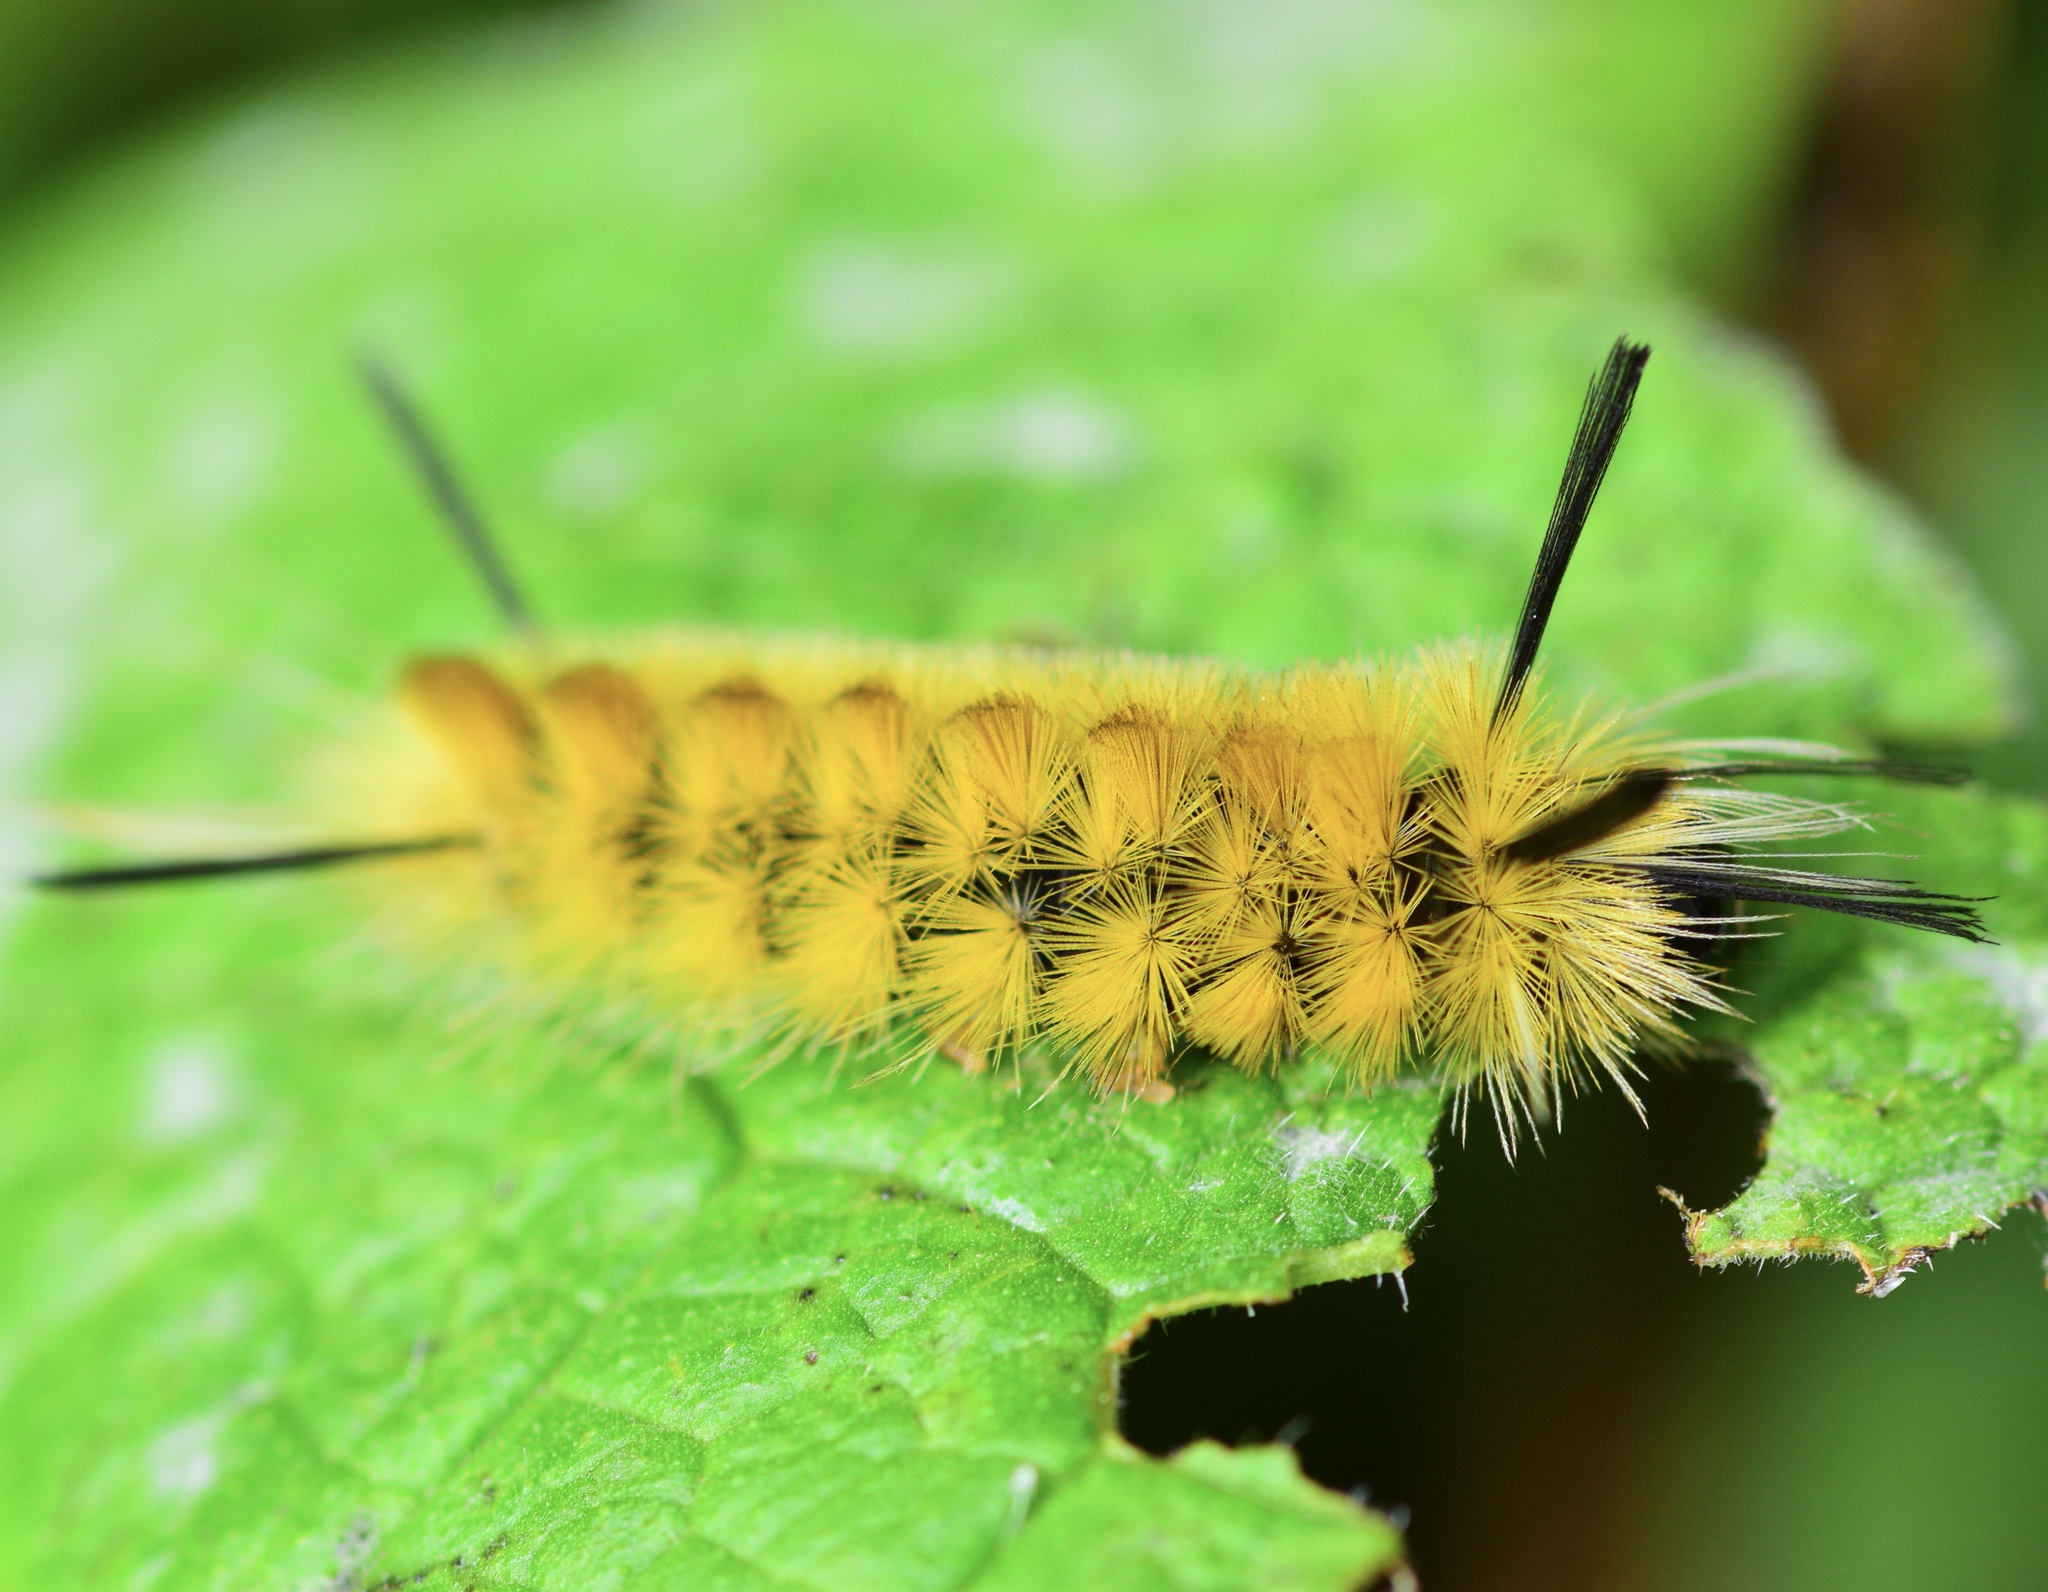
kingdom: Animalia
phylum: Arthropoda
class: Insecta
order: Lepidoptera
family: Erebidae
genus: Halysidota
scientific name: Halysidota tessellaris
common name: Banded tussock moth
